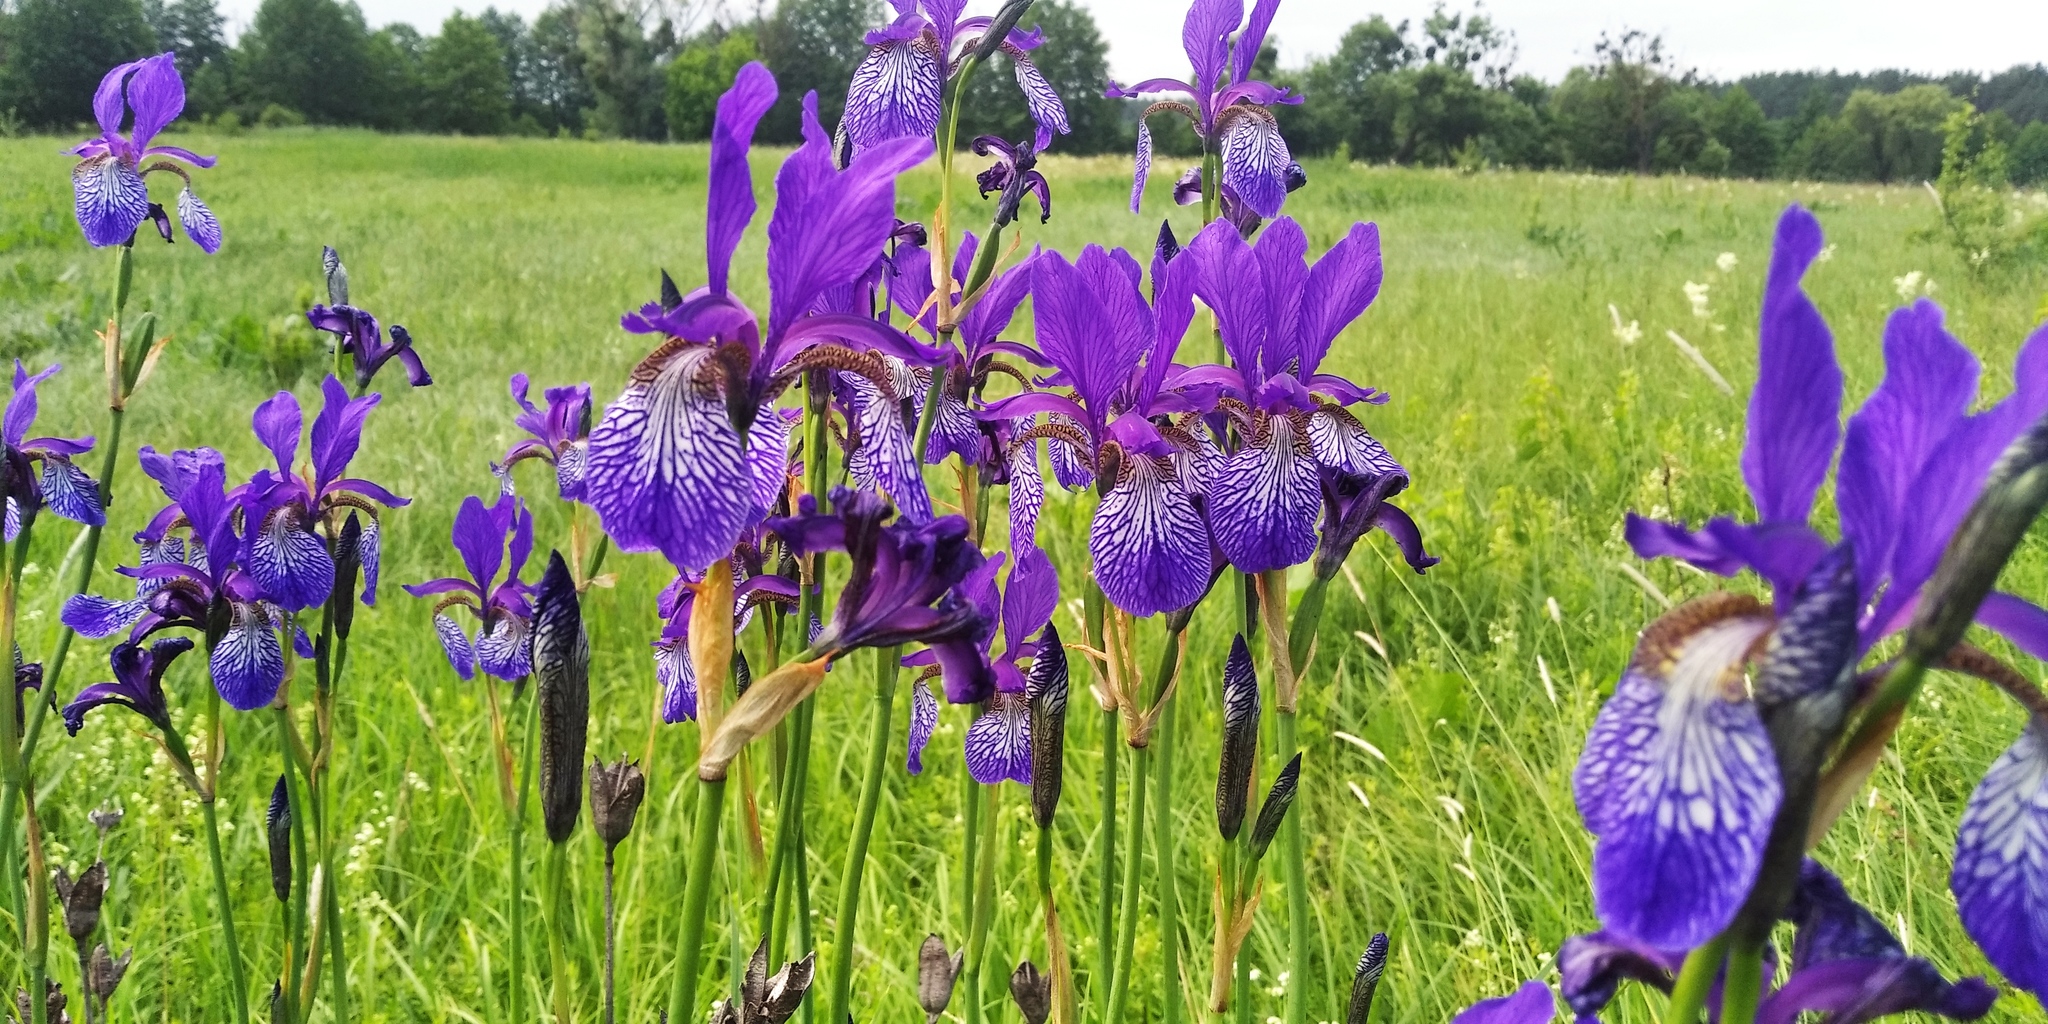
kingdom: Plantae
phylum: Tracheophyta
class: Liliopsida
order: Asparagales
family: Iridaceae
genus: Iris
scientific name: Iris sibirica
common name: Siberian iris
